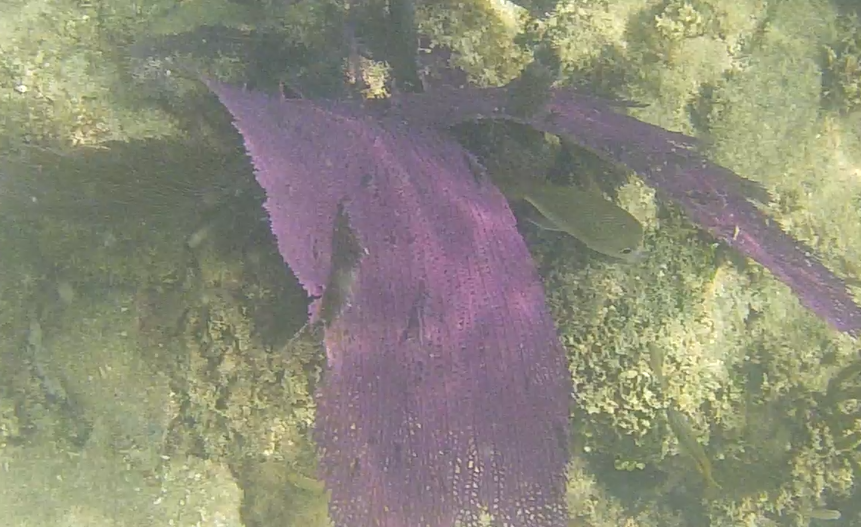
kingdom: Animalia
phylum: Cnidaria
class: Anthozoa
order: Malacalcyonacea
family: Gorgoniidae
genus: Gorgonia
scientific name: Gorgonia ventalina
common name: Common sea fan
